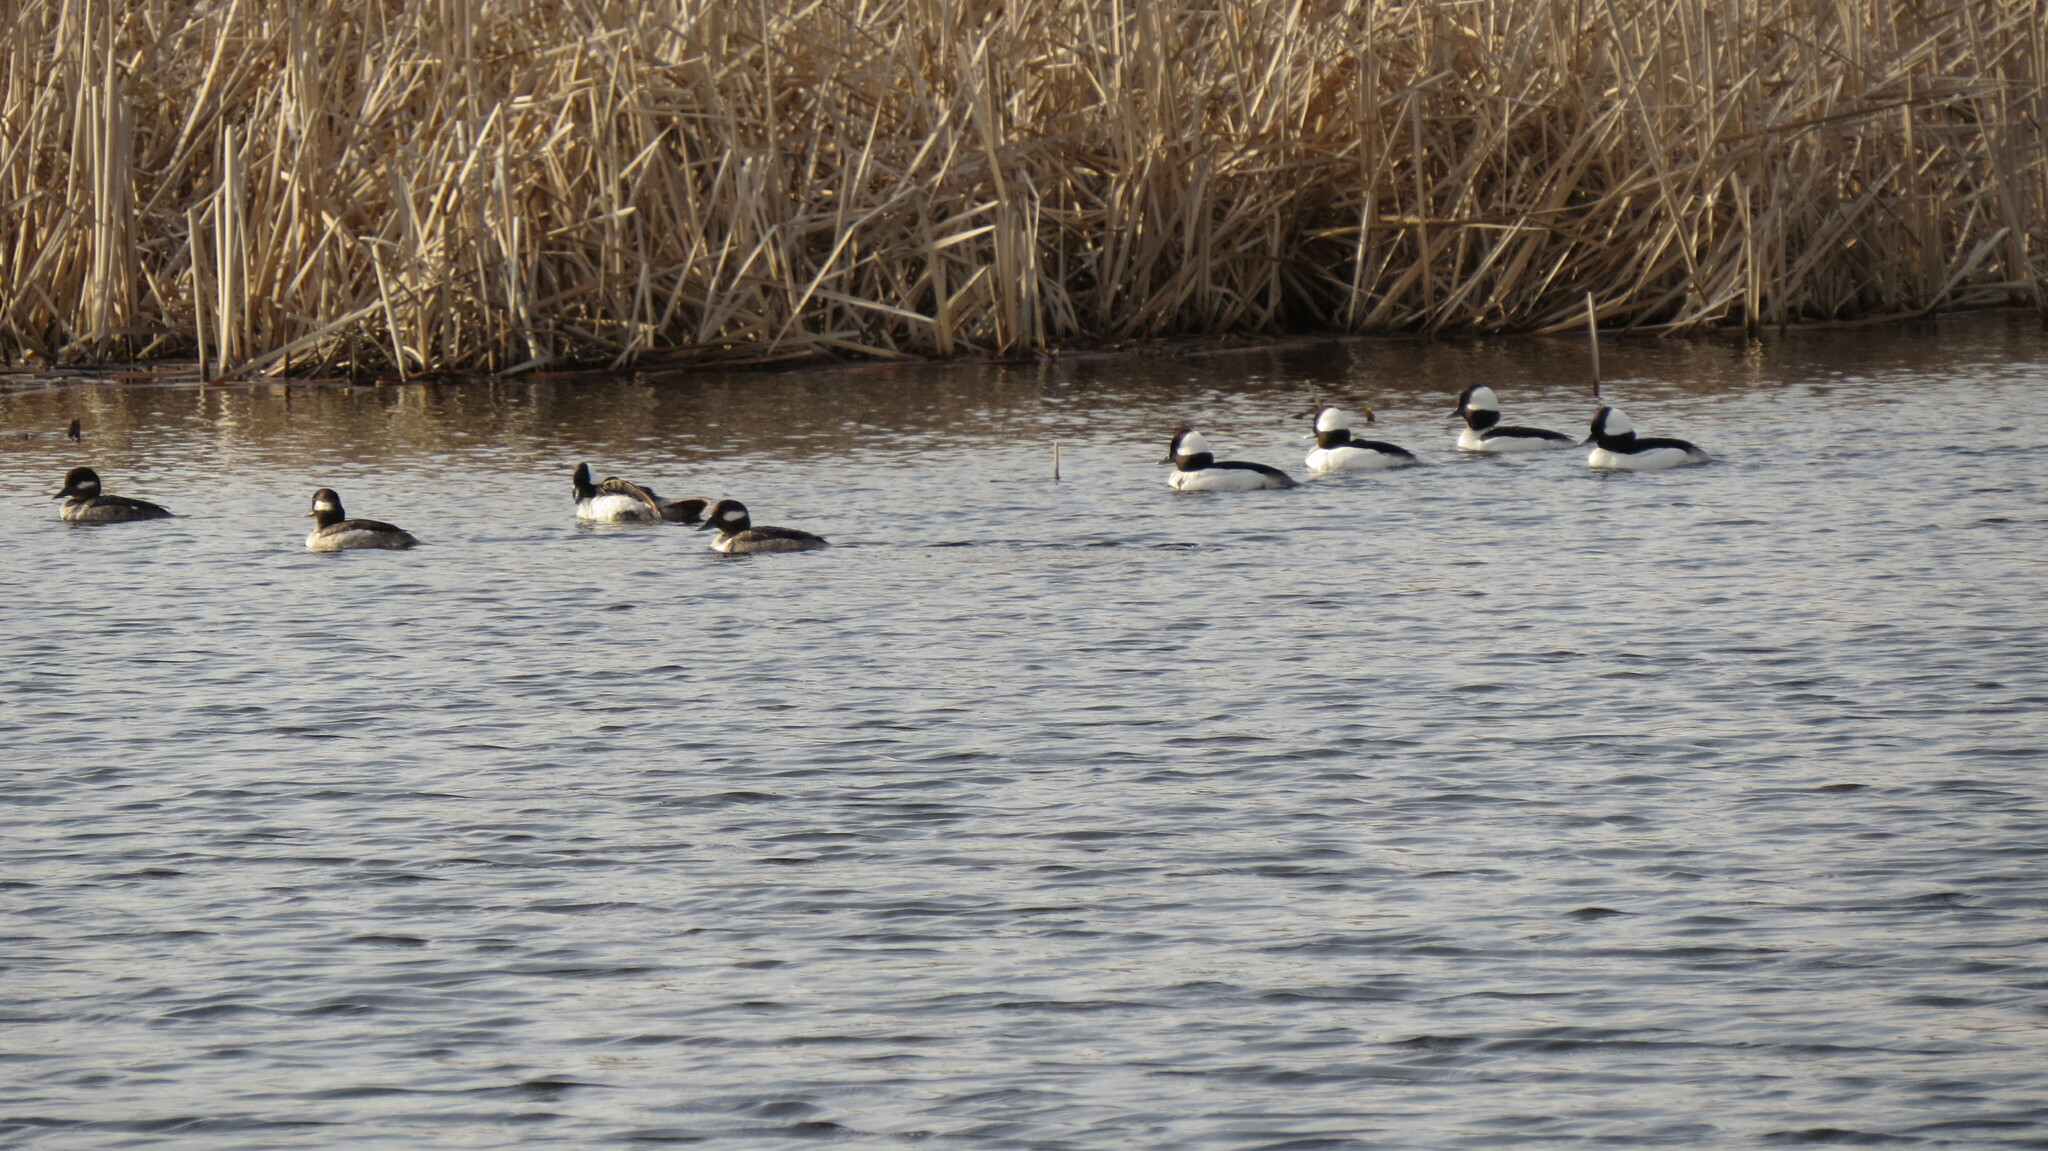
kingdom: Animalia
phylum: Chordata
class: Aves
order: Anseriformes
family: Anatidae
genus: Bucephala
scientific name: Bucephala albeola
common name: Bufflehead
